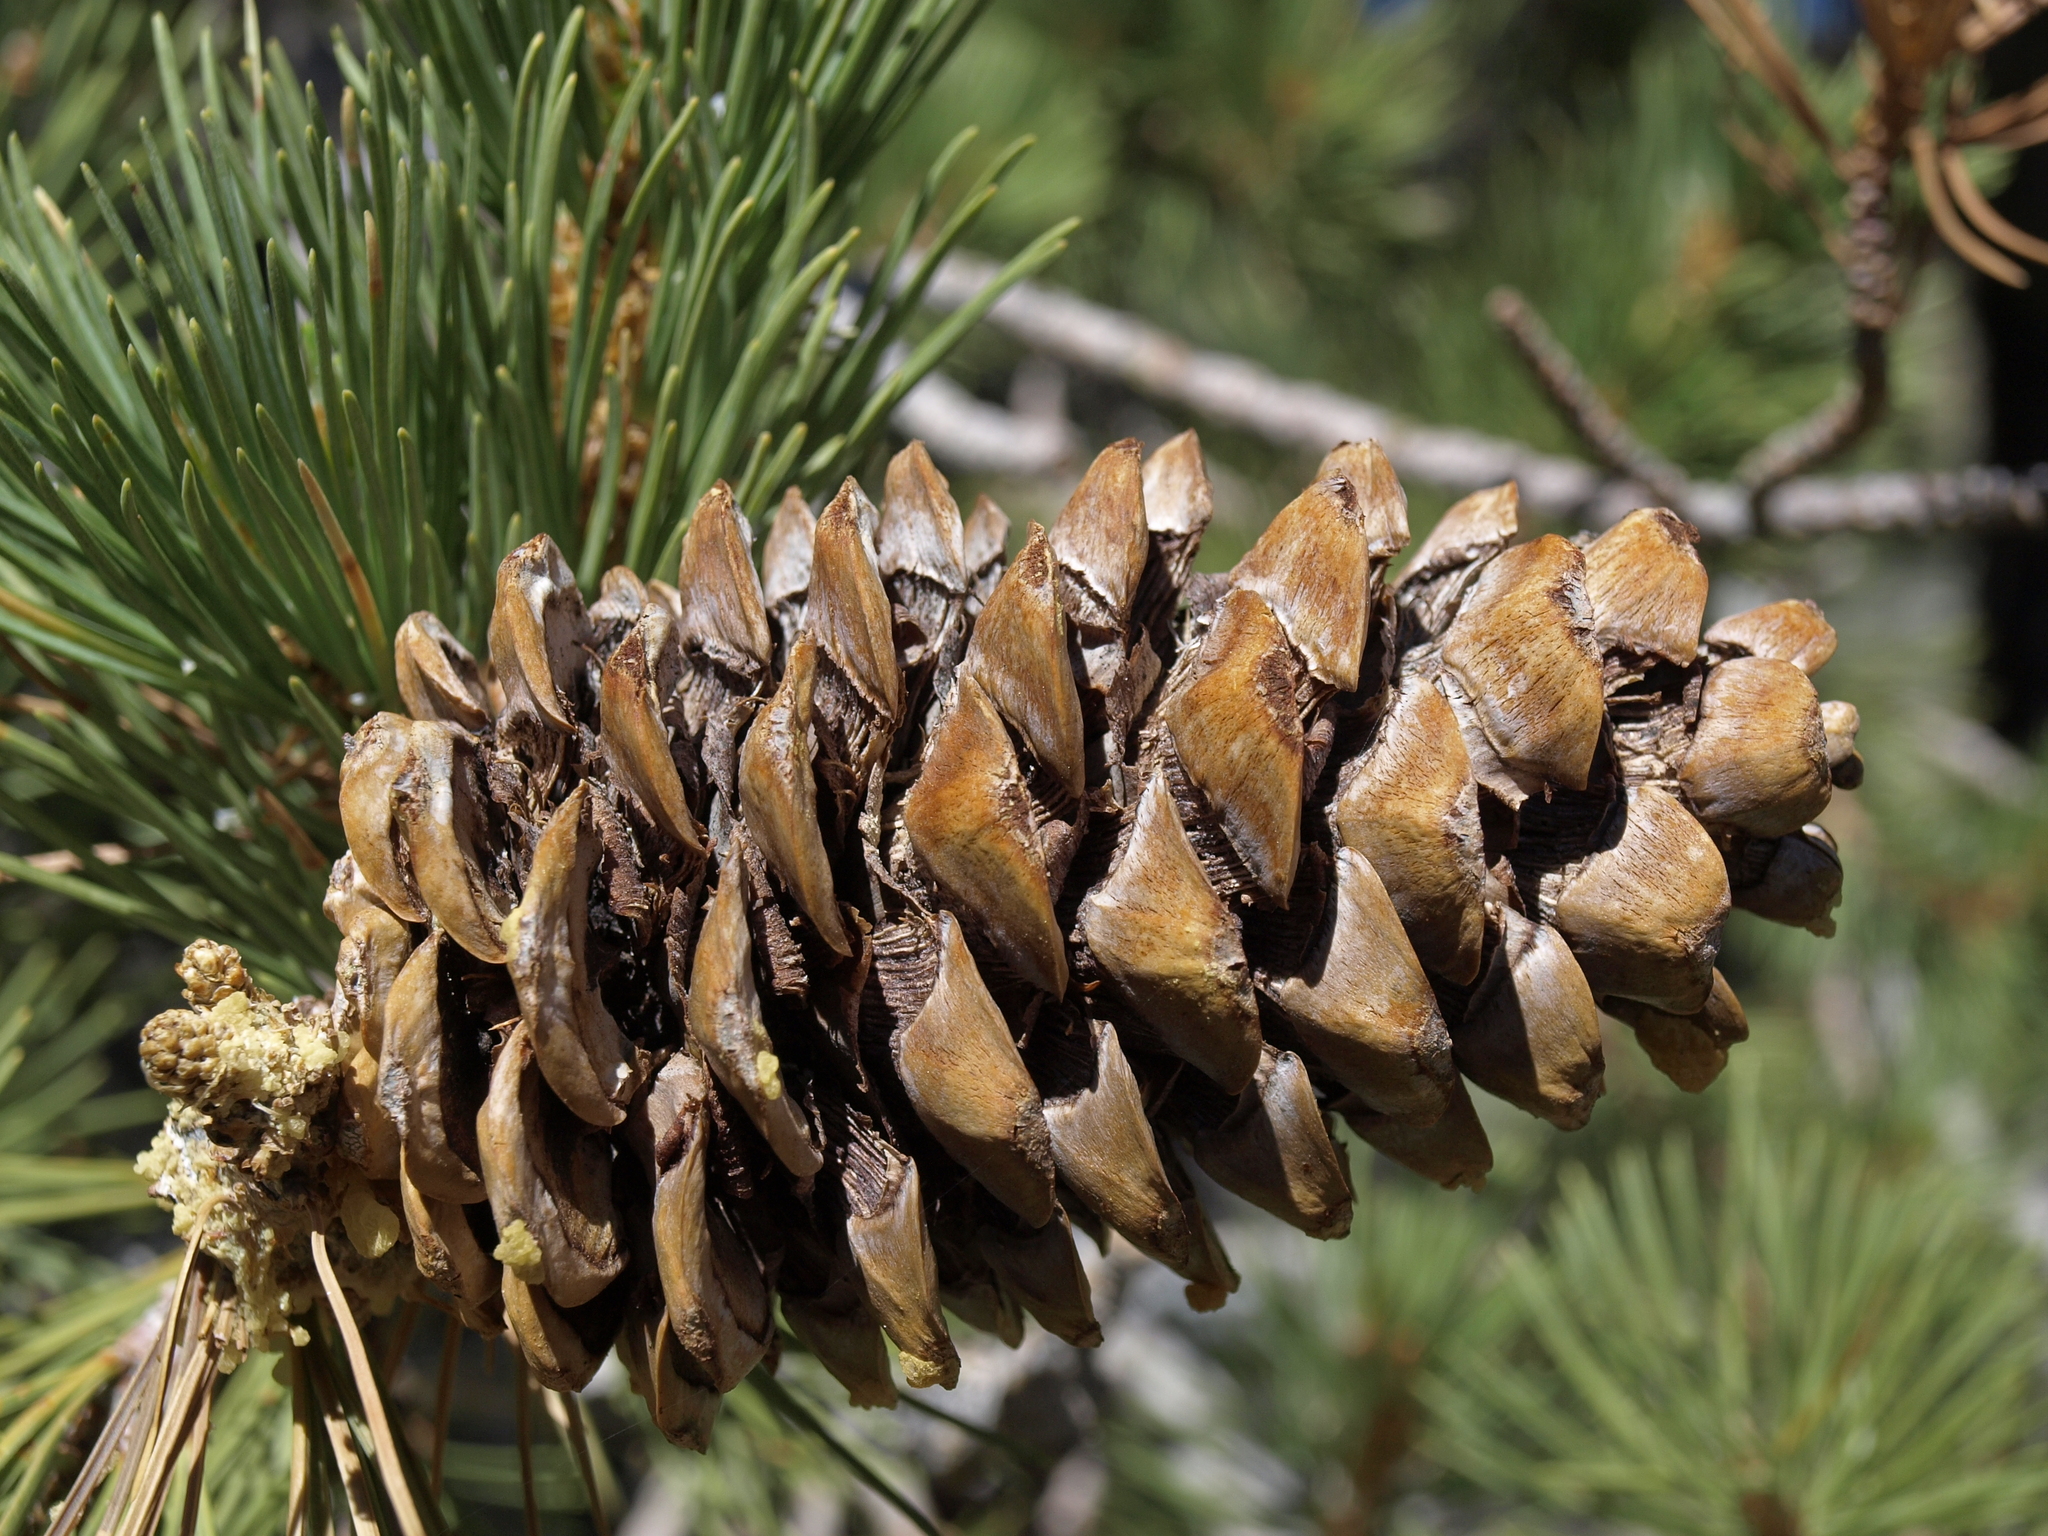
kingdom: Plantae
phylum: Tracheophyta
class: Pinopsida
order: Pinales
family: Pinaceae
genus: Pinus
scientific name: Pinus flexilis
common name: Limber pine
